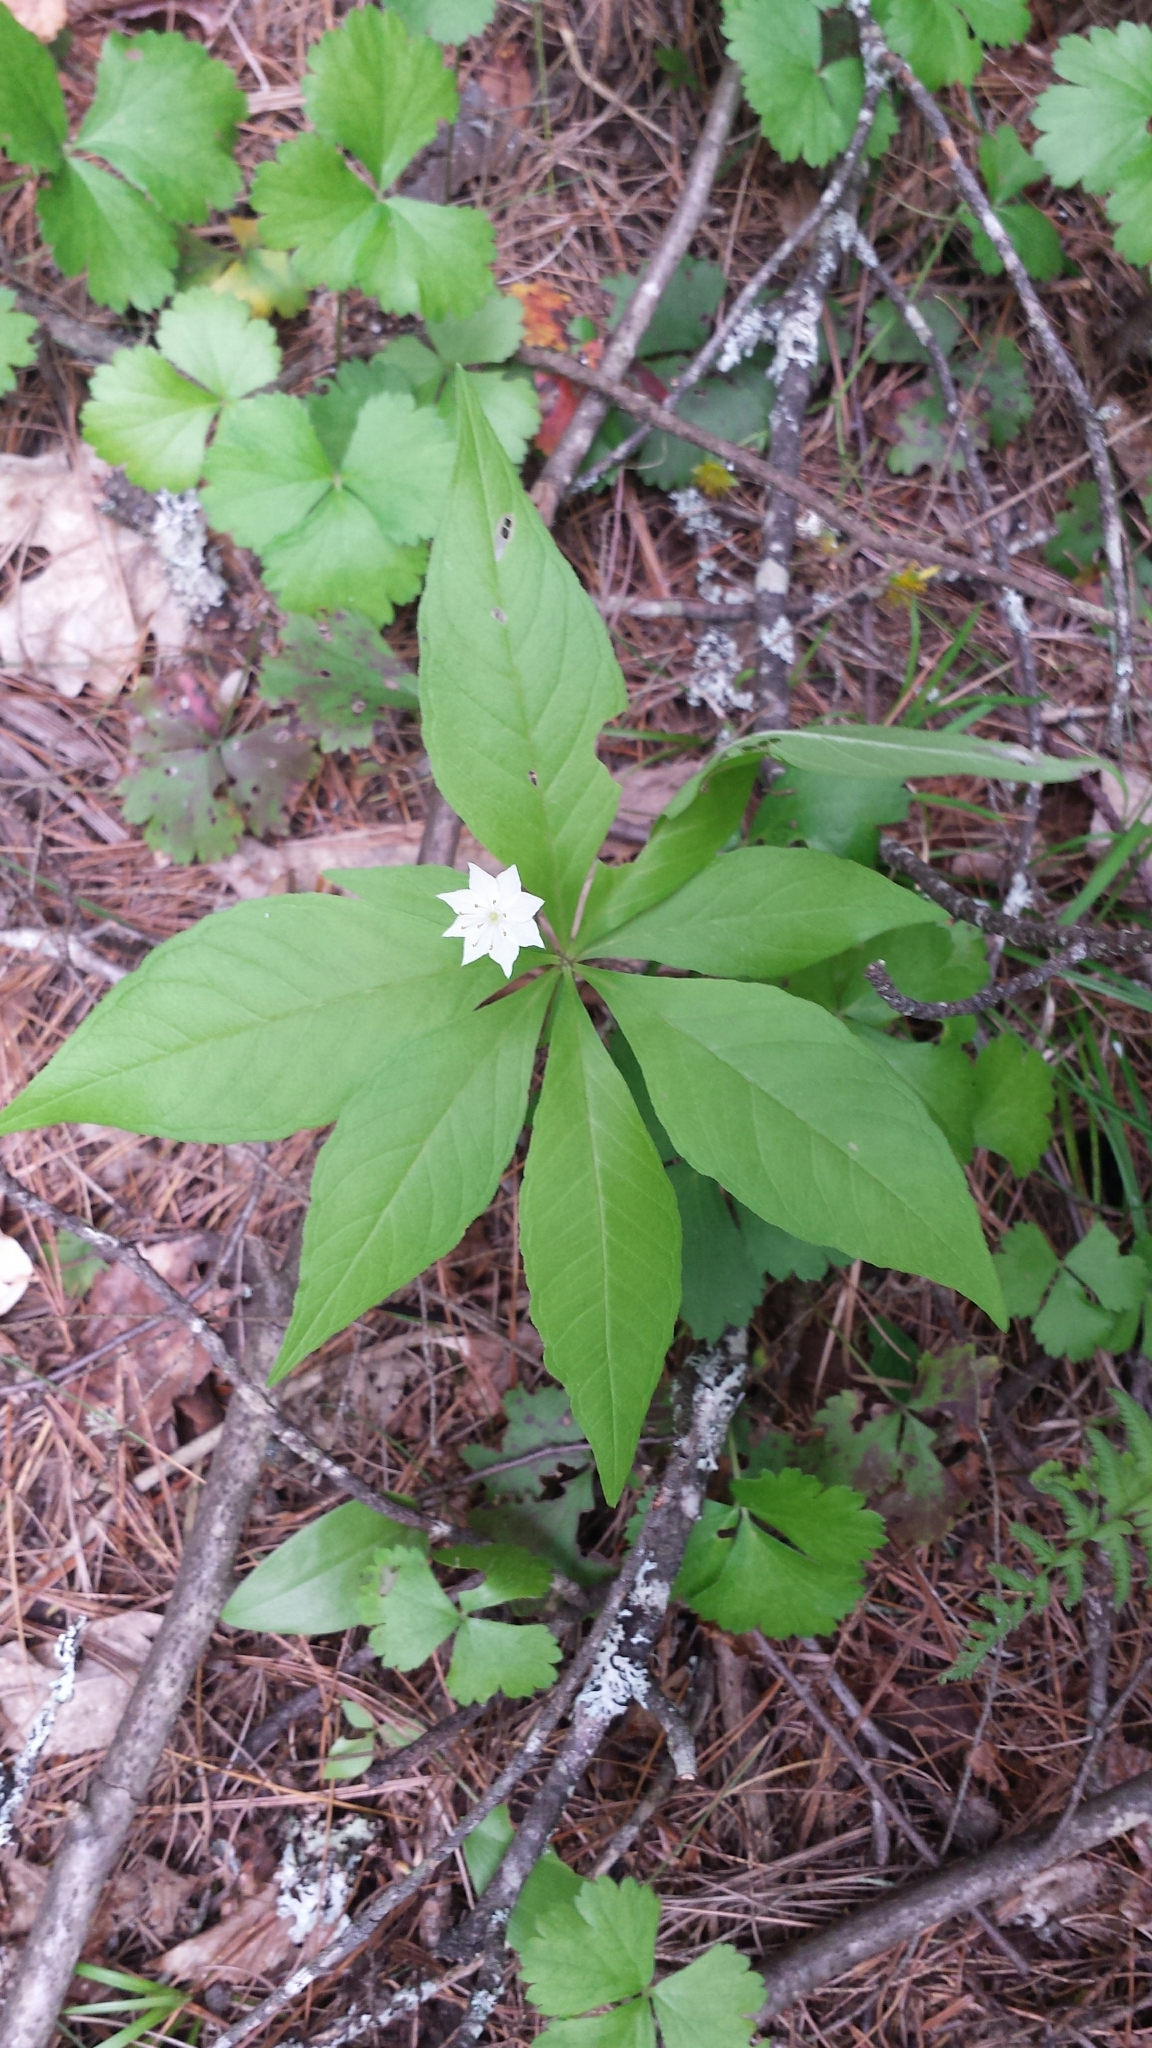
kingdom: Plantae
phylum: Tracheophyta
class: Magnoliopsida
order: Ericales
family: Primulaceae
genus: Lysimachia
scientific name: Lysimachia borealis
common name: American starflower
